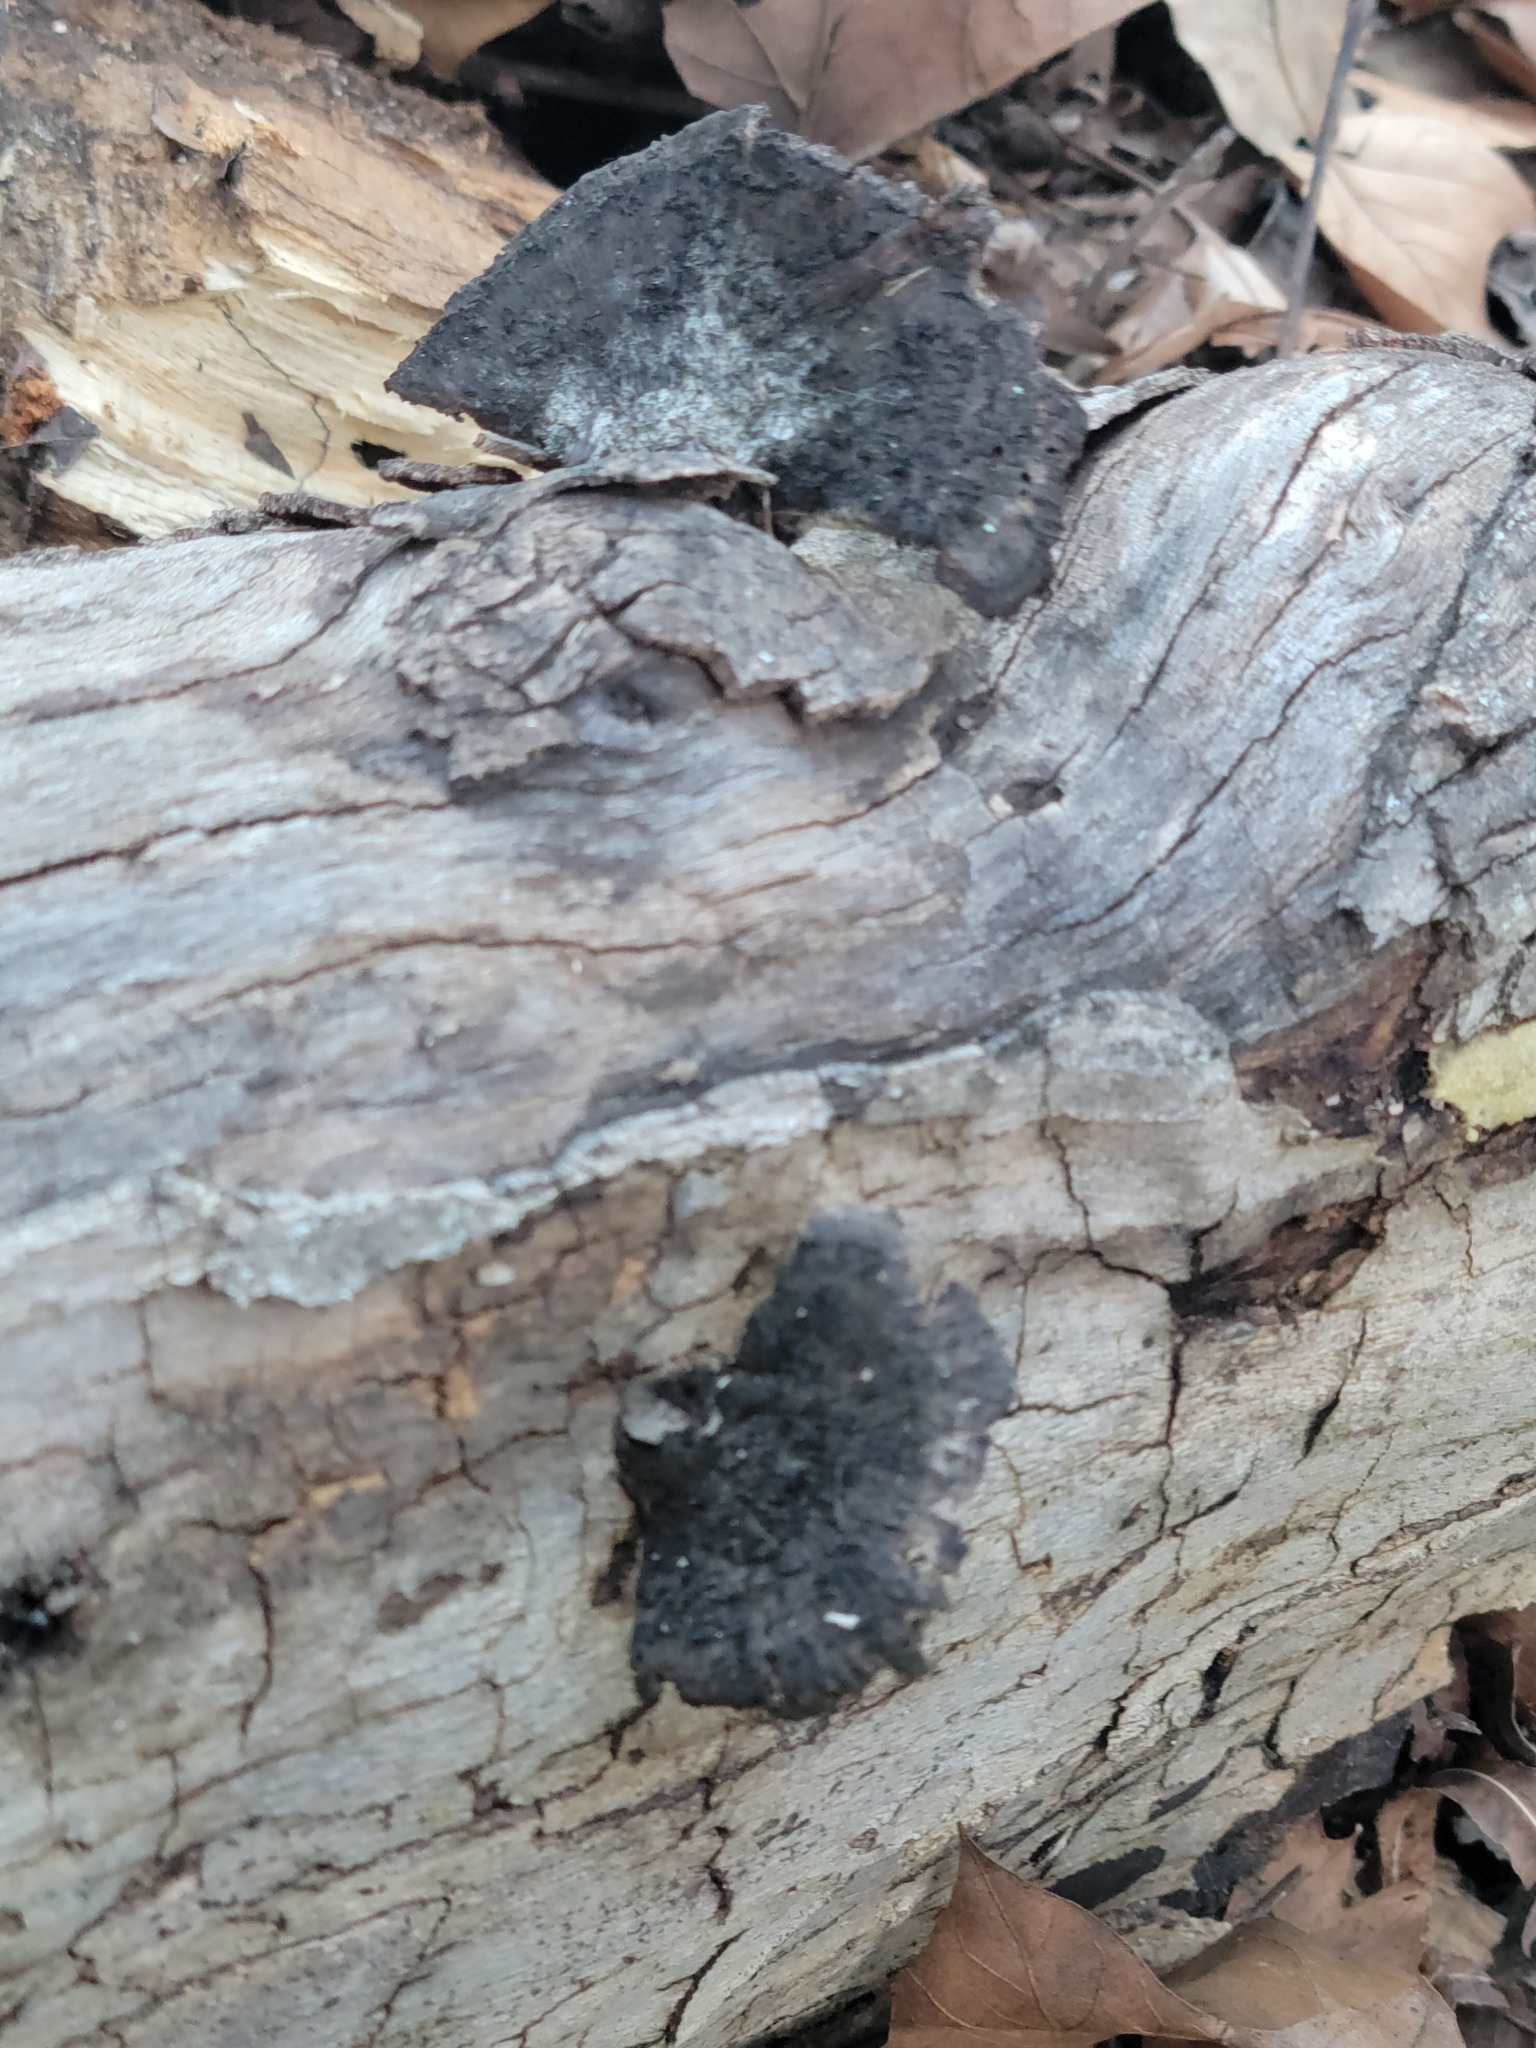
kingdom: Fungi
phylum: Basidiomycota
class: Agaricomycetes
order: Polyporales
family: Cerrenaceae
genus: Cerrena
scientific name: Cerrena hydnoides
